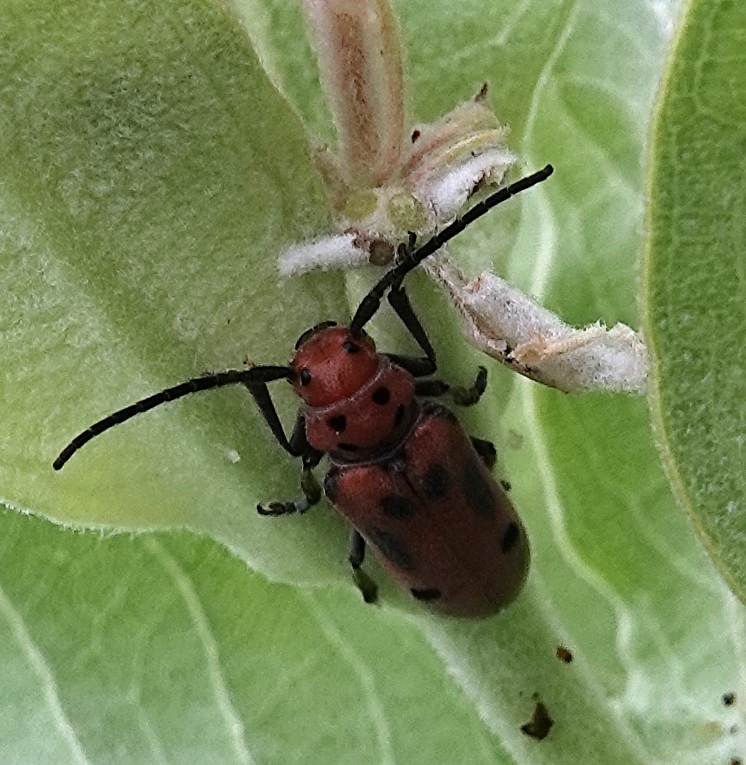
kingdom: Animalia
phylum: Arthropoda
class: Insecta
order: Coleoptera
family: Cerambycidae
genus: Tetraopes
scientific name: Tetraopes tetrophthalmus
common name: Red milkweed beetle
